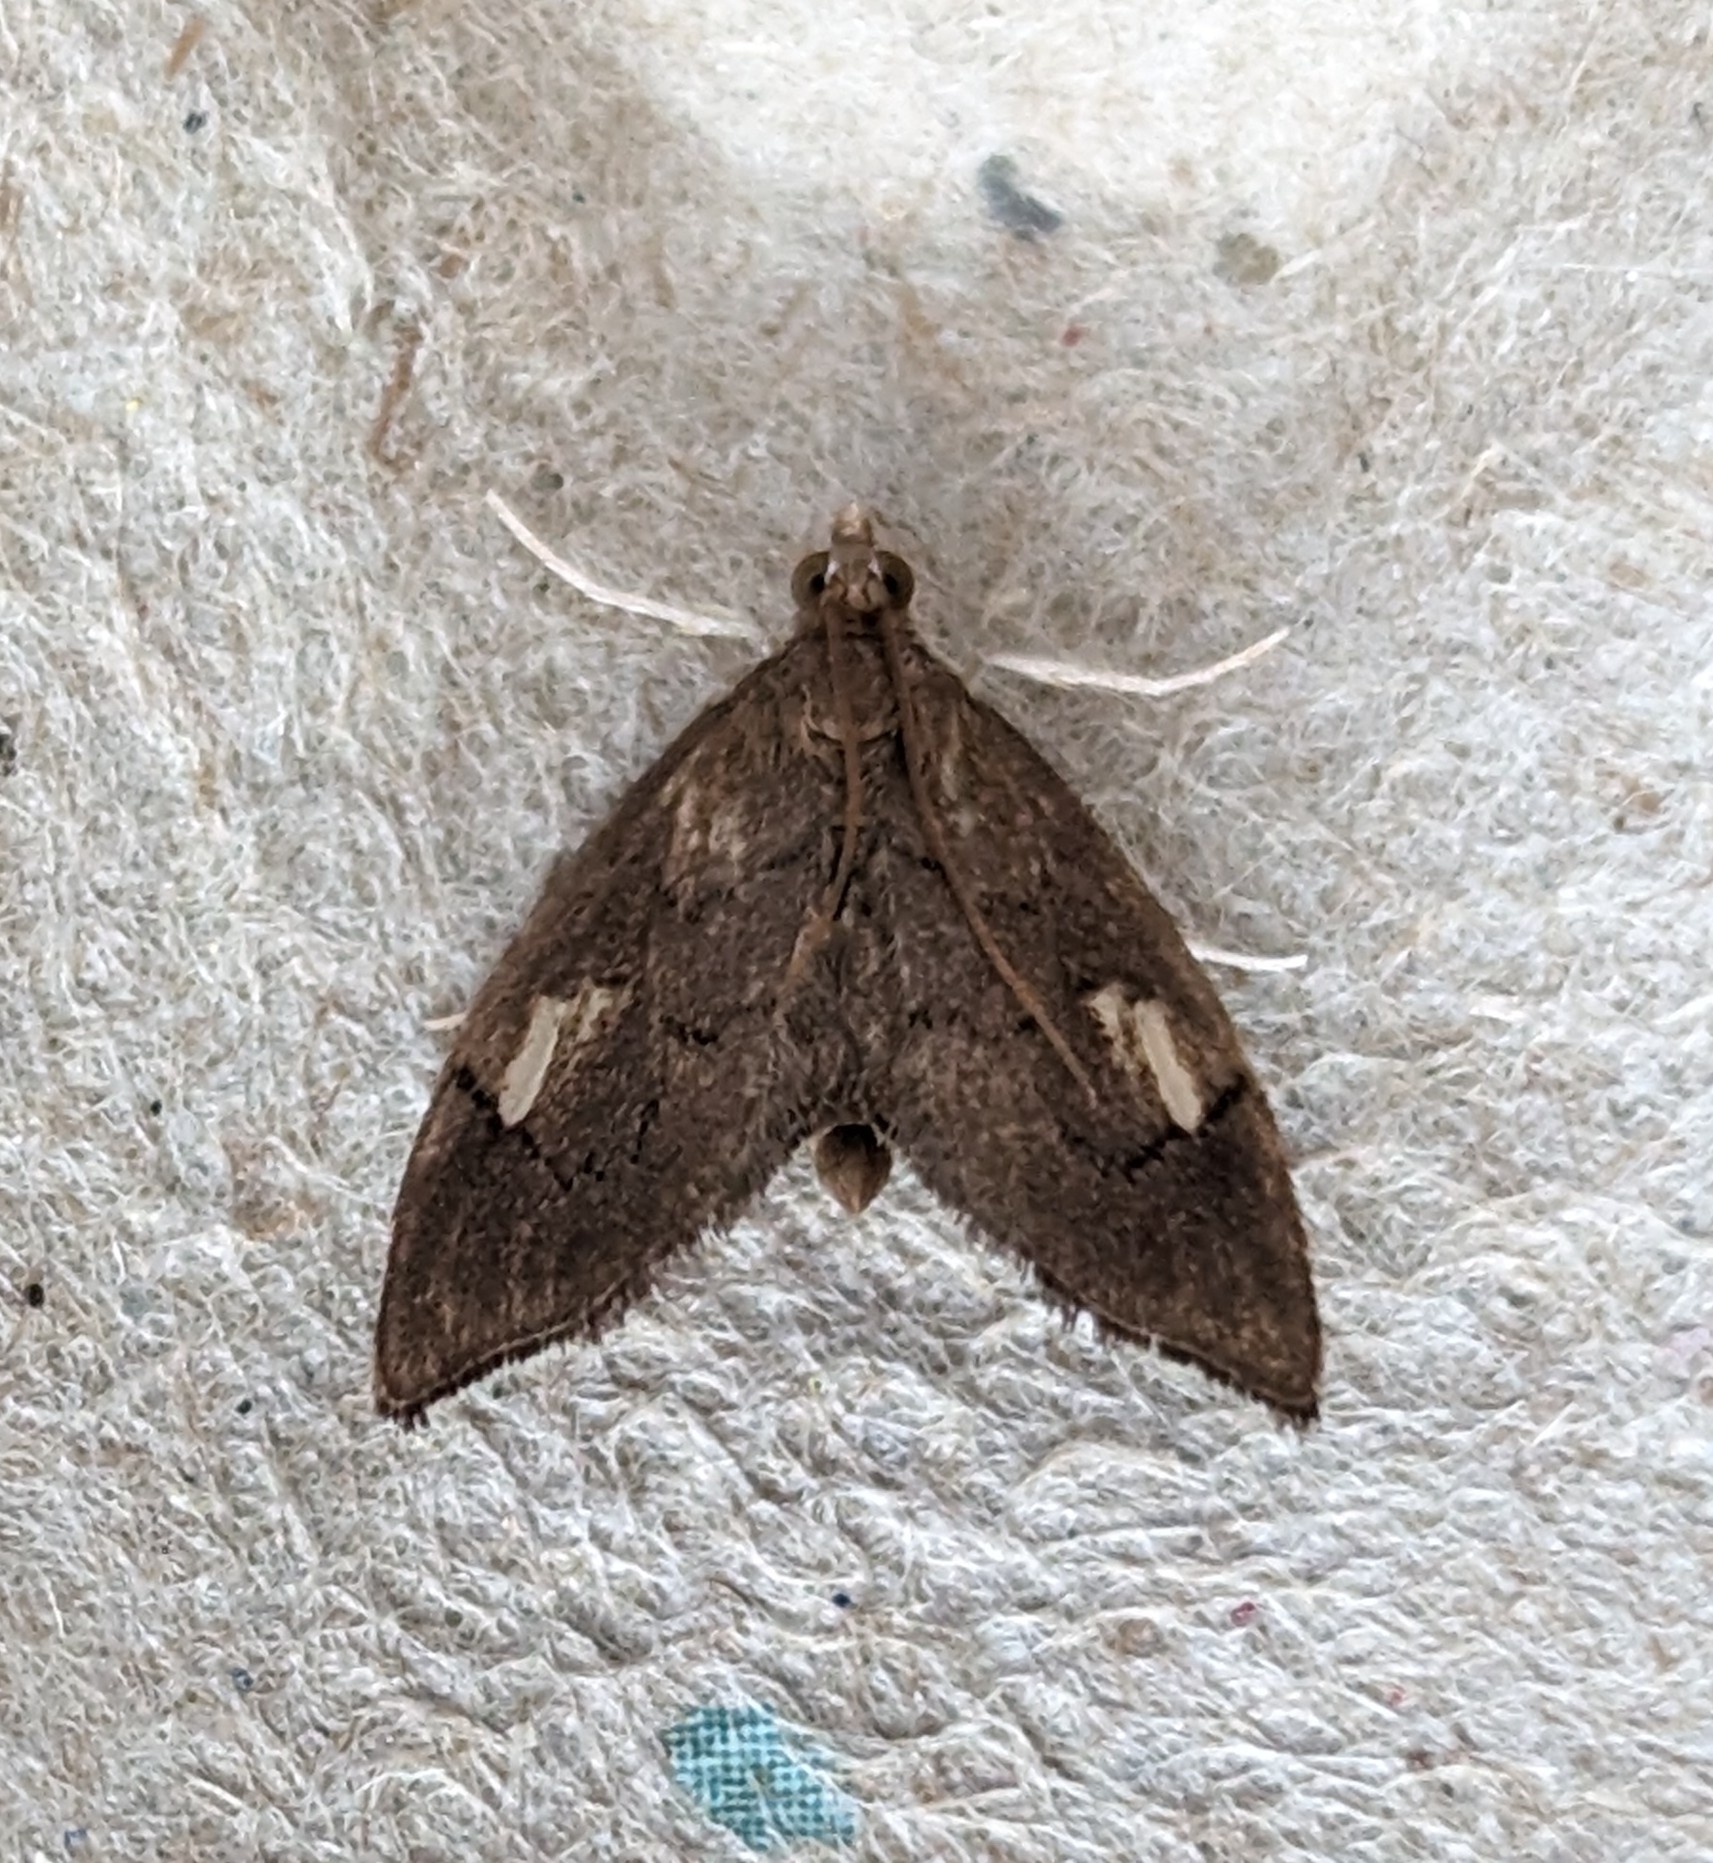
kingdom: Animalia
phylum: Arthropoda
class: Insecta
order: Lepidoptera
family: Crambidae
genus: Perispasta
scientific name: Perispasta caeculalis
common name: Titian peale's moth
